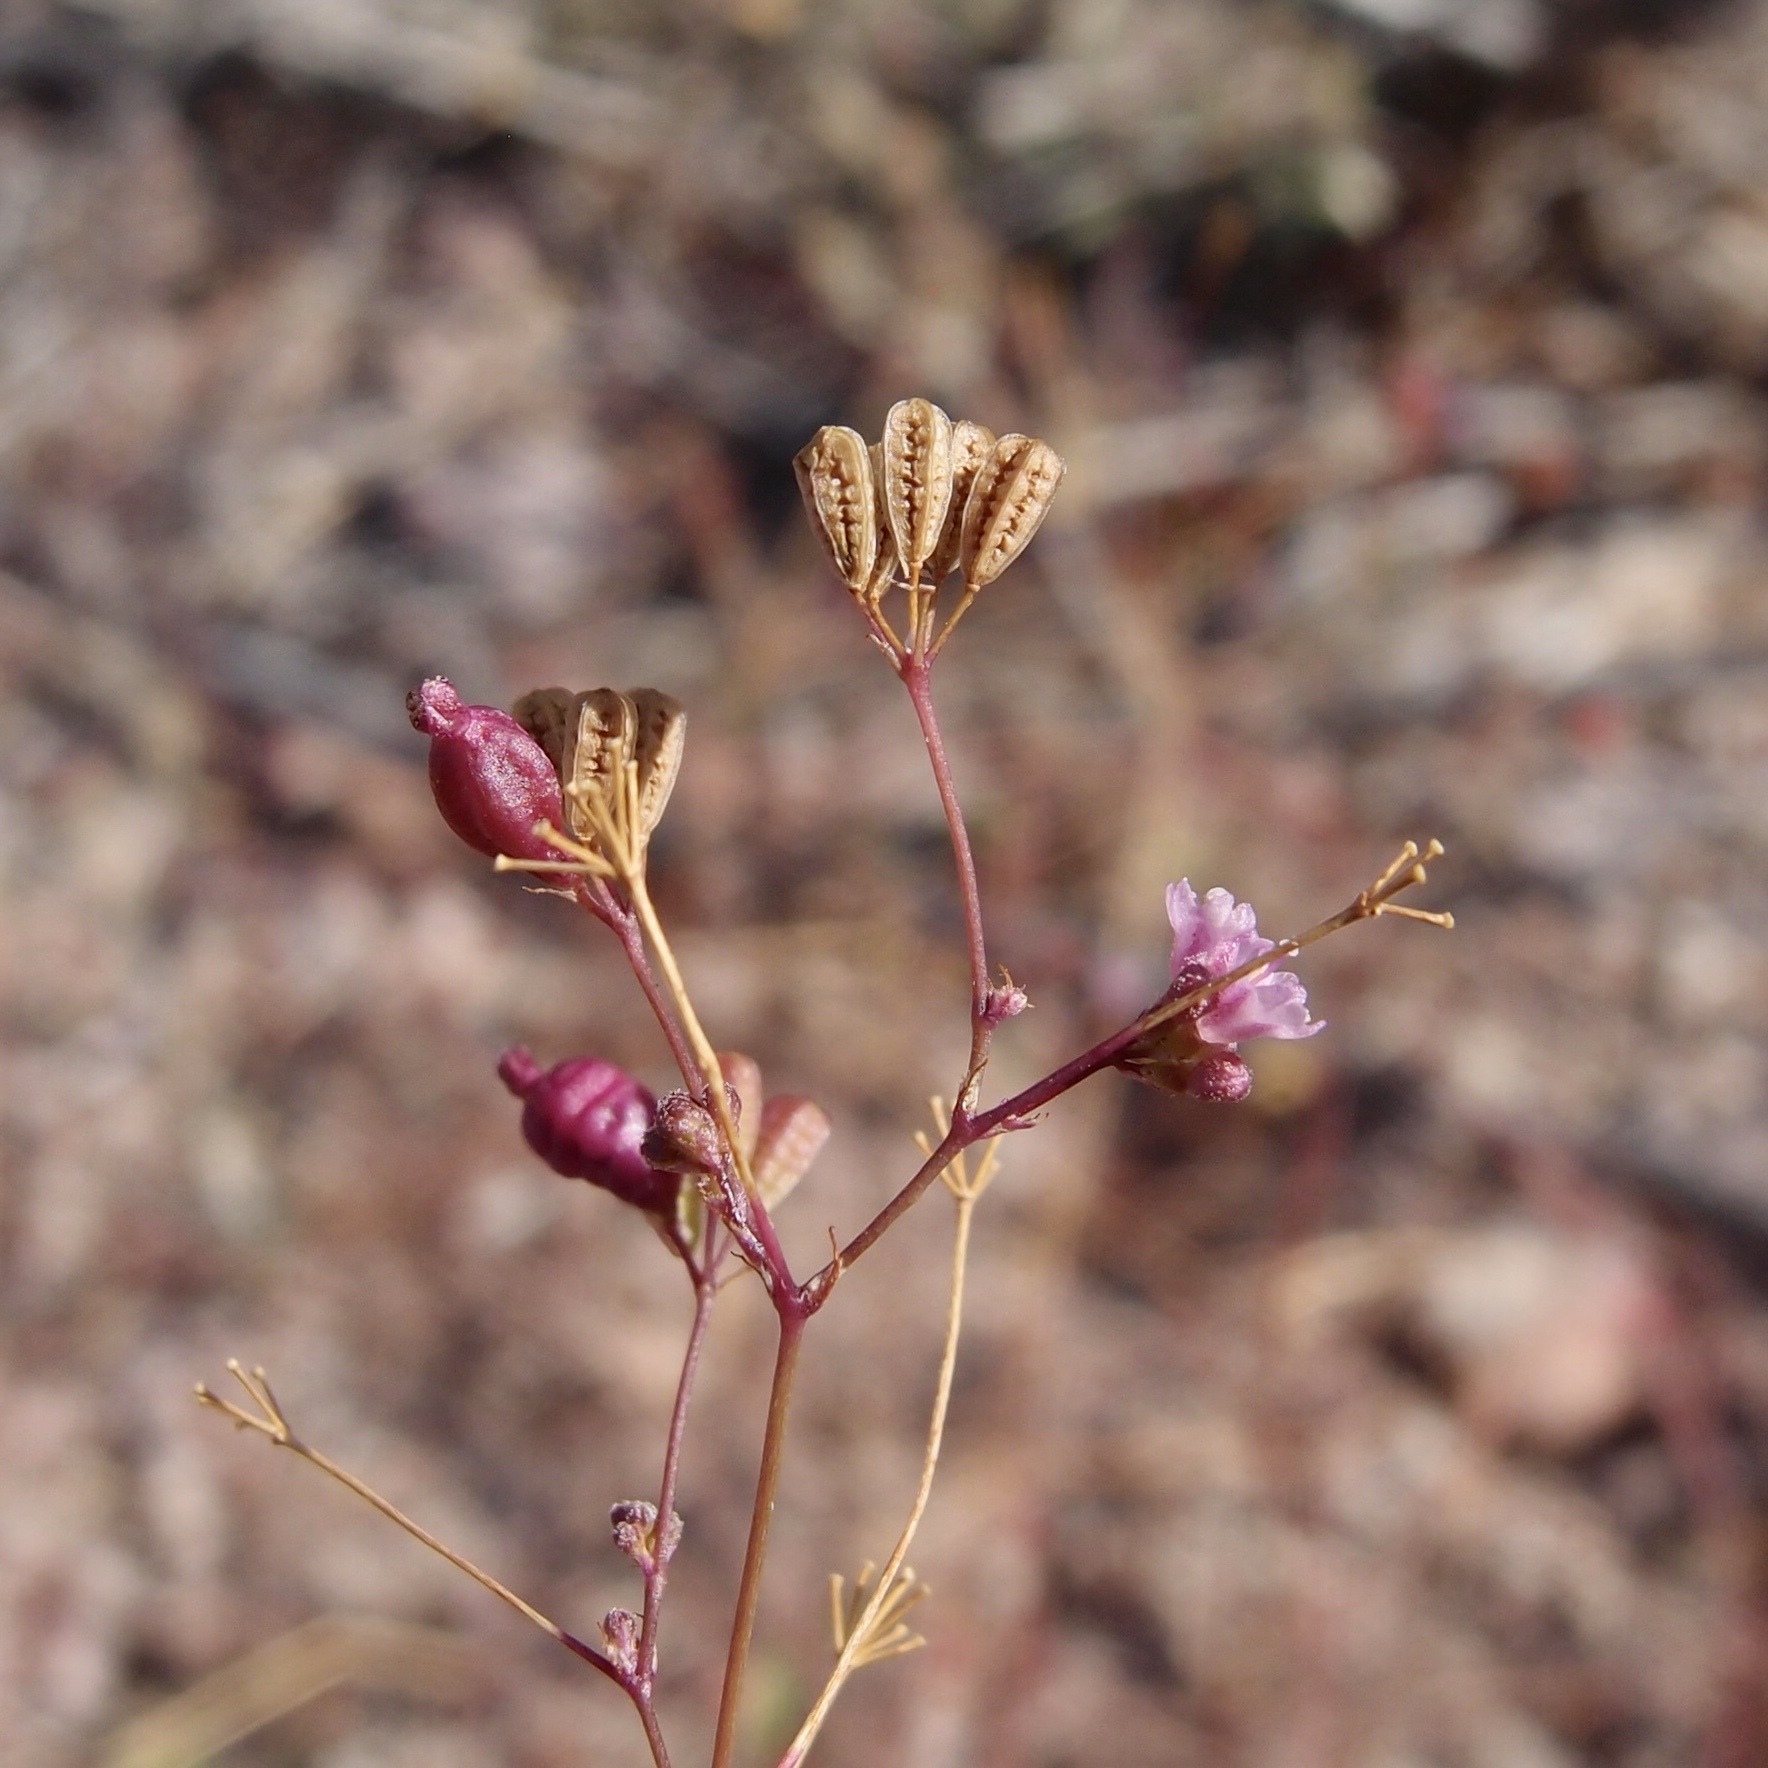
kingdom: Plantae
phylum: Tracheophyta
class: Magnoliopsida
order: Caryophyllales
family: Nyctaginaceae
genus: Boerhavia
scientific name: Boerhavia triquetra
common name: Creeping sticky-stem
